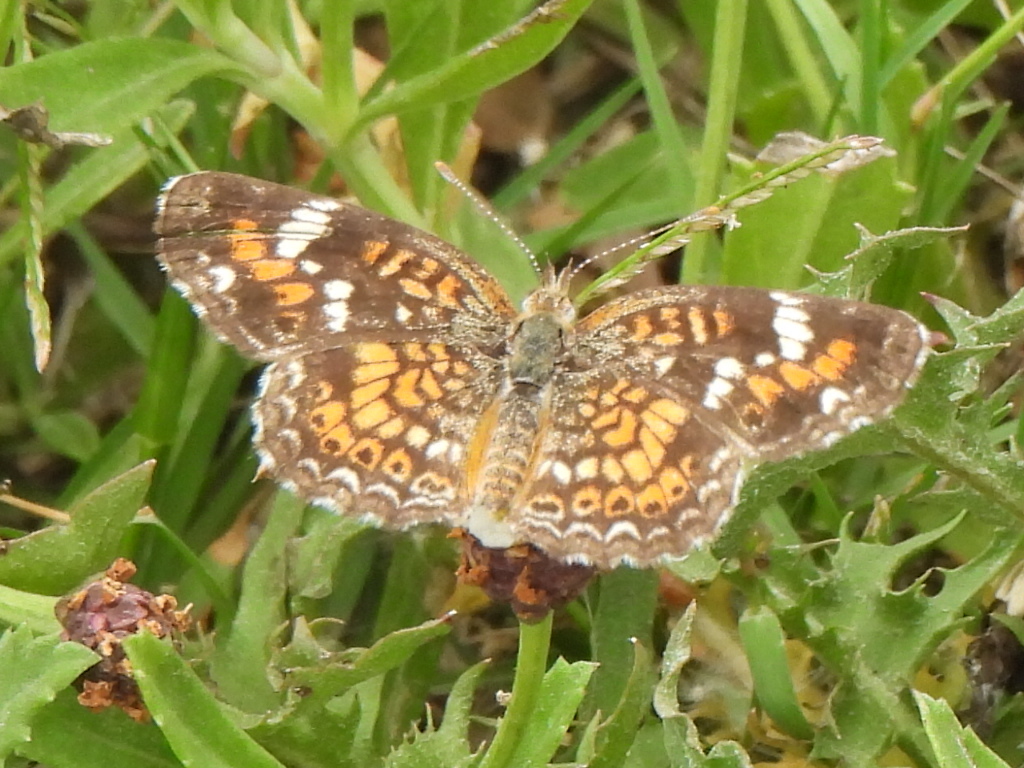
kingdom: Animalia
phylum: Arthropoda
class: Insecta
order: Lepidoptera
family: Nymphalidae
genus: Phyciodes
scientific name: Phyciodes phaon
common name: Phaon crescent
